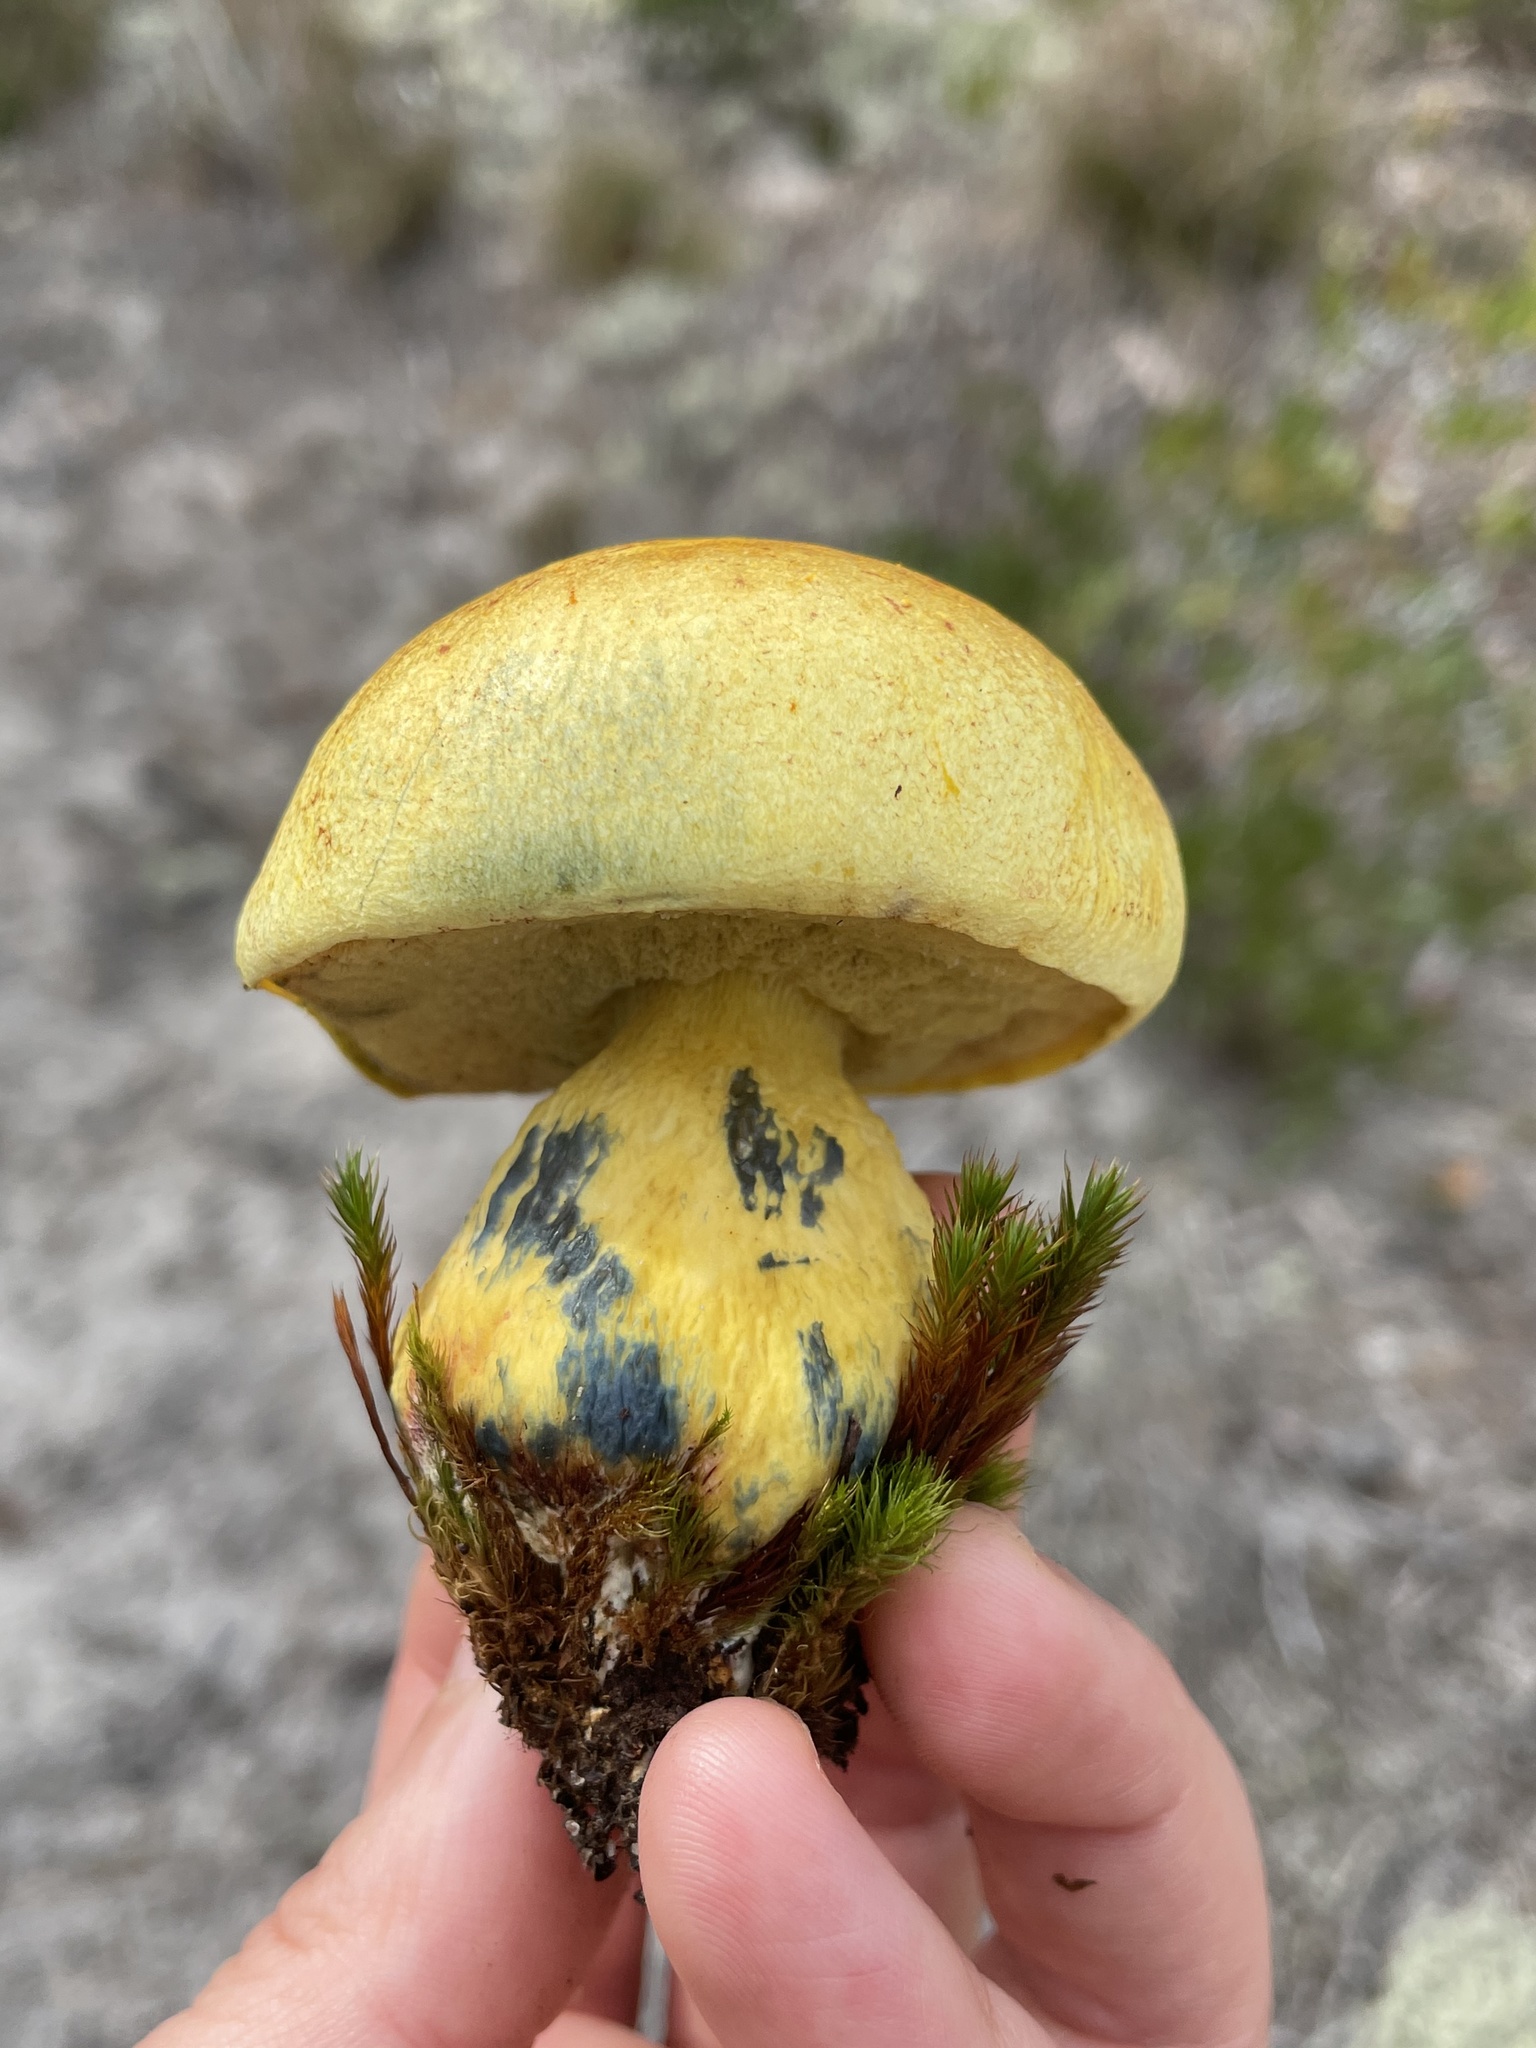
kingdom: Fungi
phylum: Basidiomycota
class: Agaricomycetes
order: Boletales
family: Boletaceae
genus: Alessioporus
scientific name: Alessioporus rubriflavus
